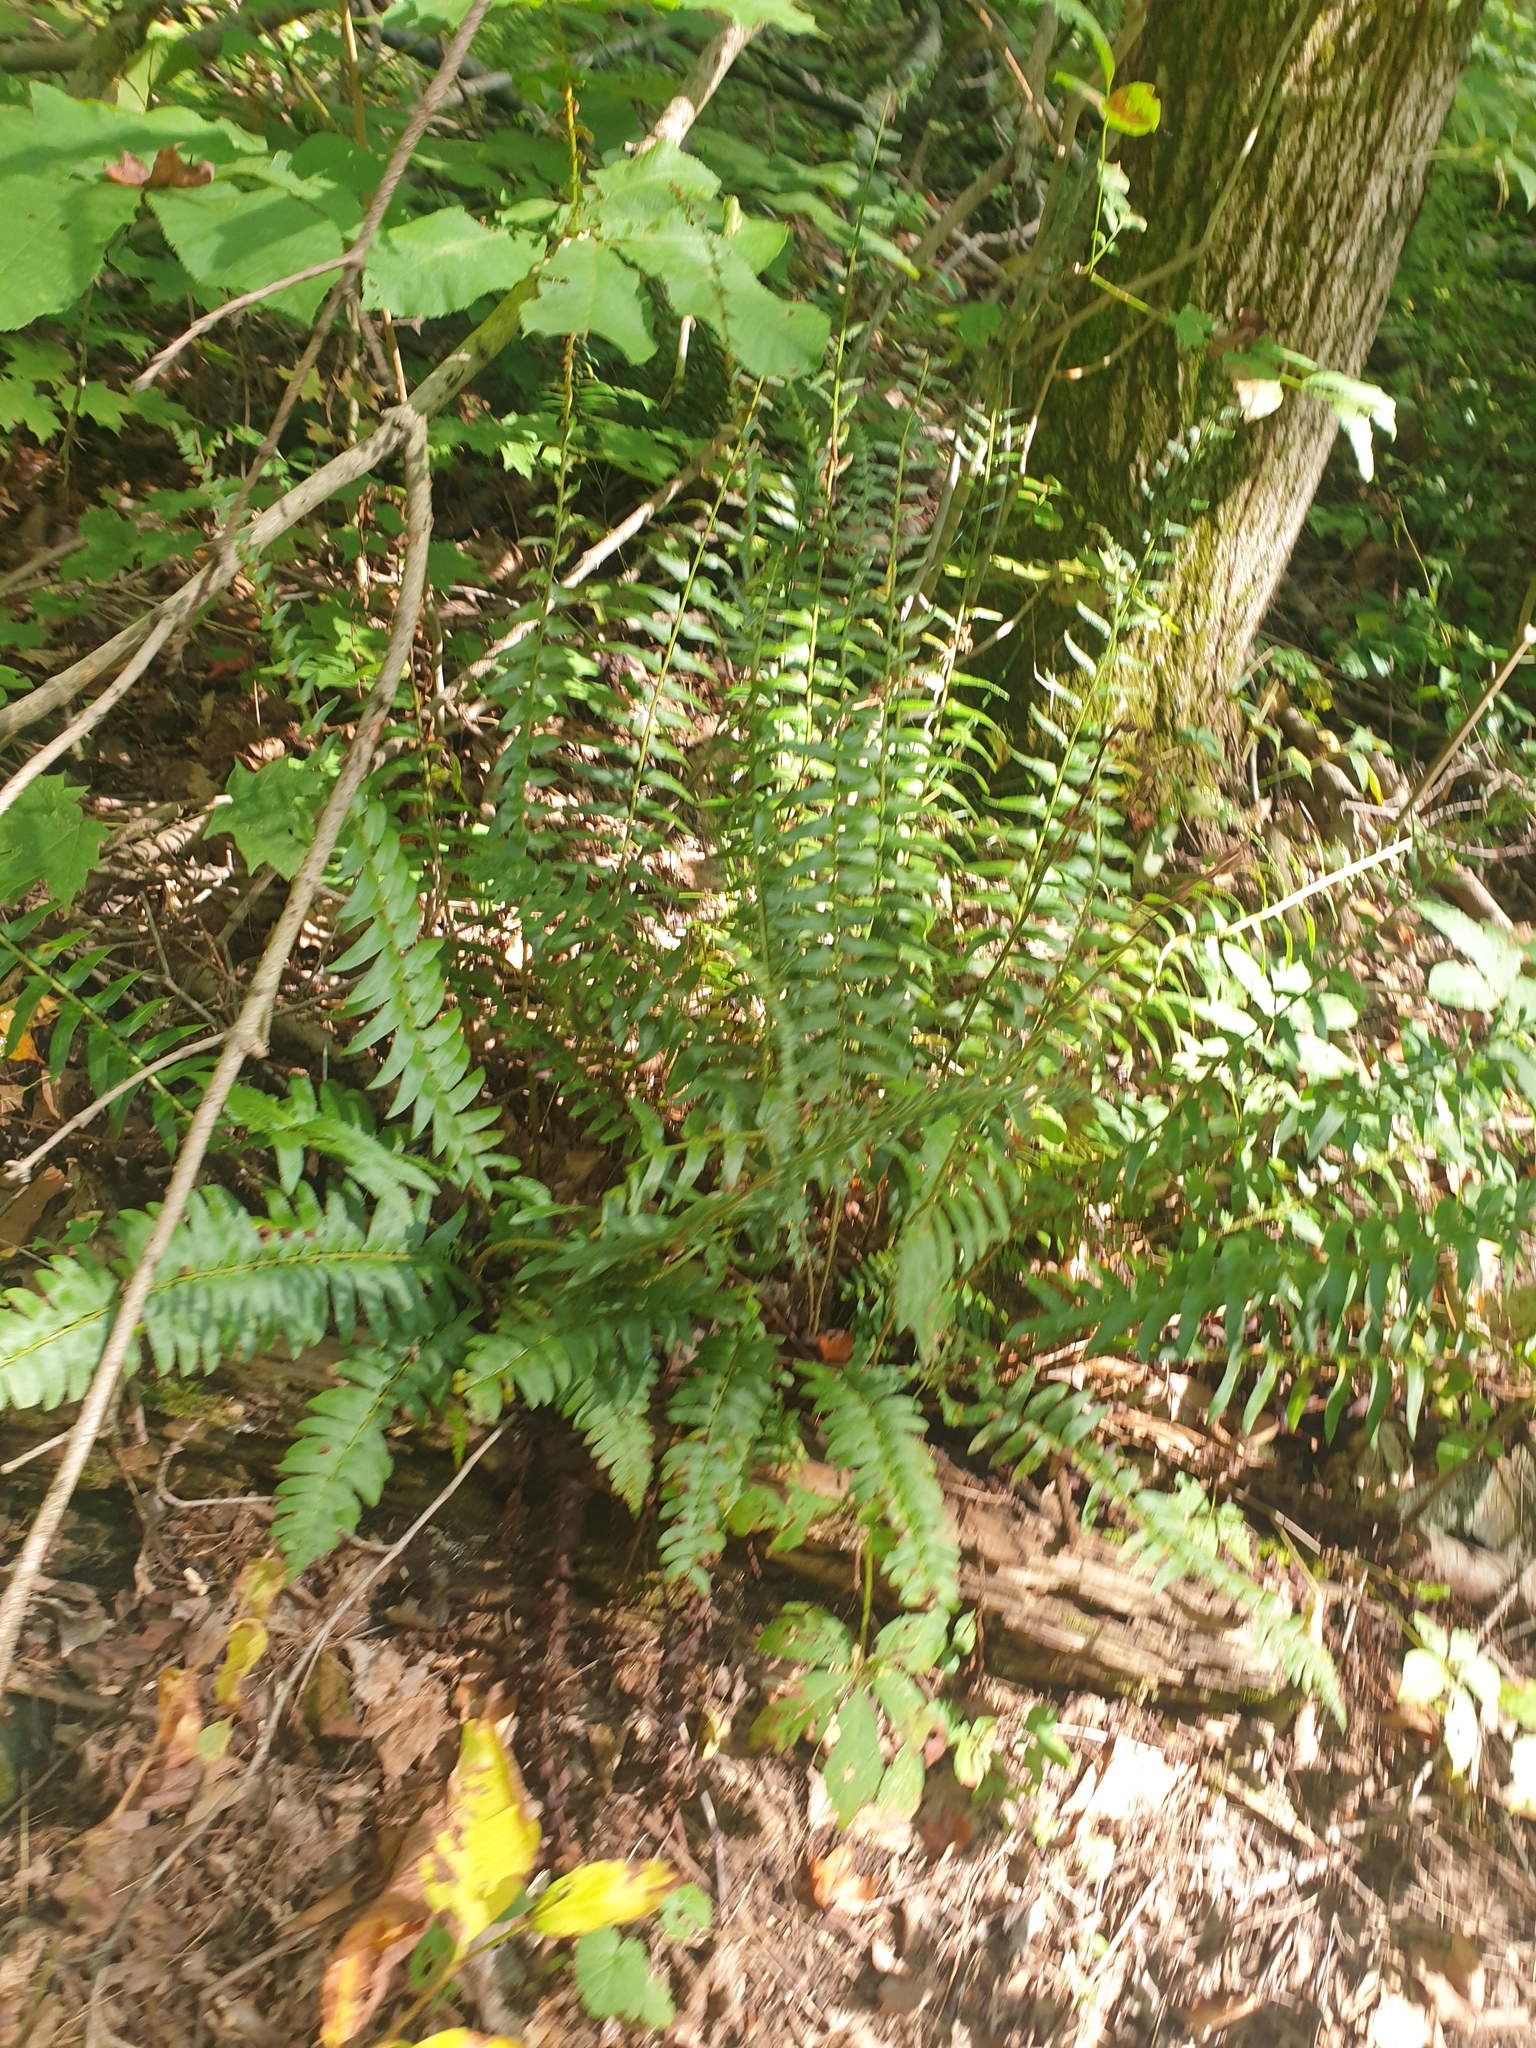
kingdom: Plantae
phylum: Tracheophyta
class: Polypodiopsida
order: Polypodiales
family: Dryopteridaceae
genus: Polystichum
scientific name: Polystichum acrostichoides
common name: Christmas fern
